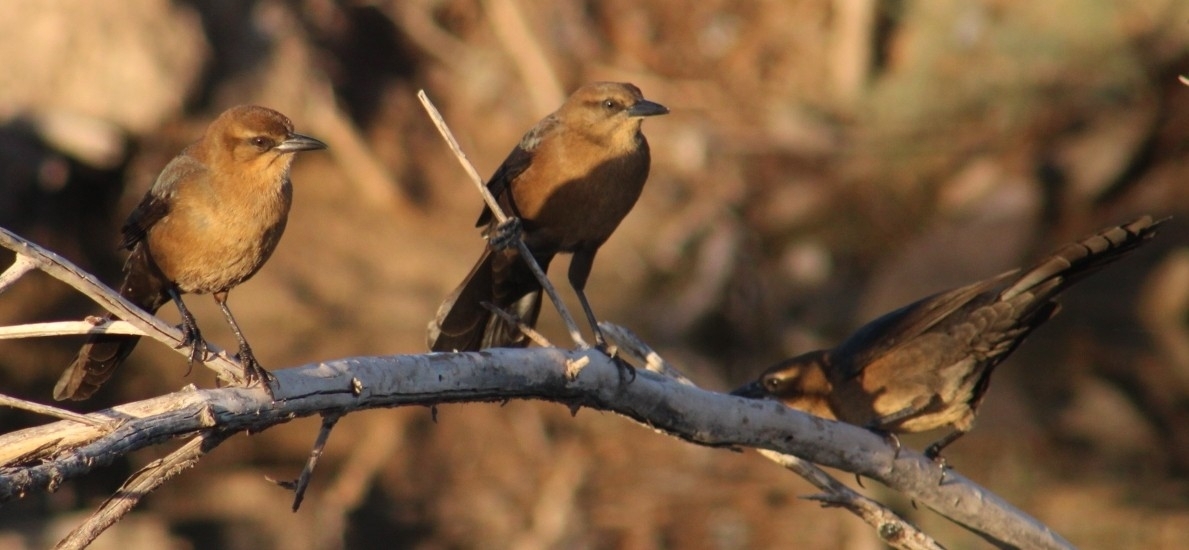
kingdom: Animalia
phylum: Chordata
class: Aves
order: Passeriformes
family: Icteridae
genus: Quiscalus
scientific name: Quiscalus mexicanus
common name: Great-tailed grackle
